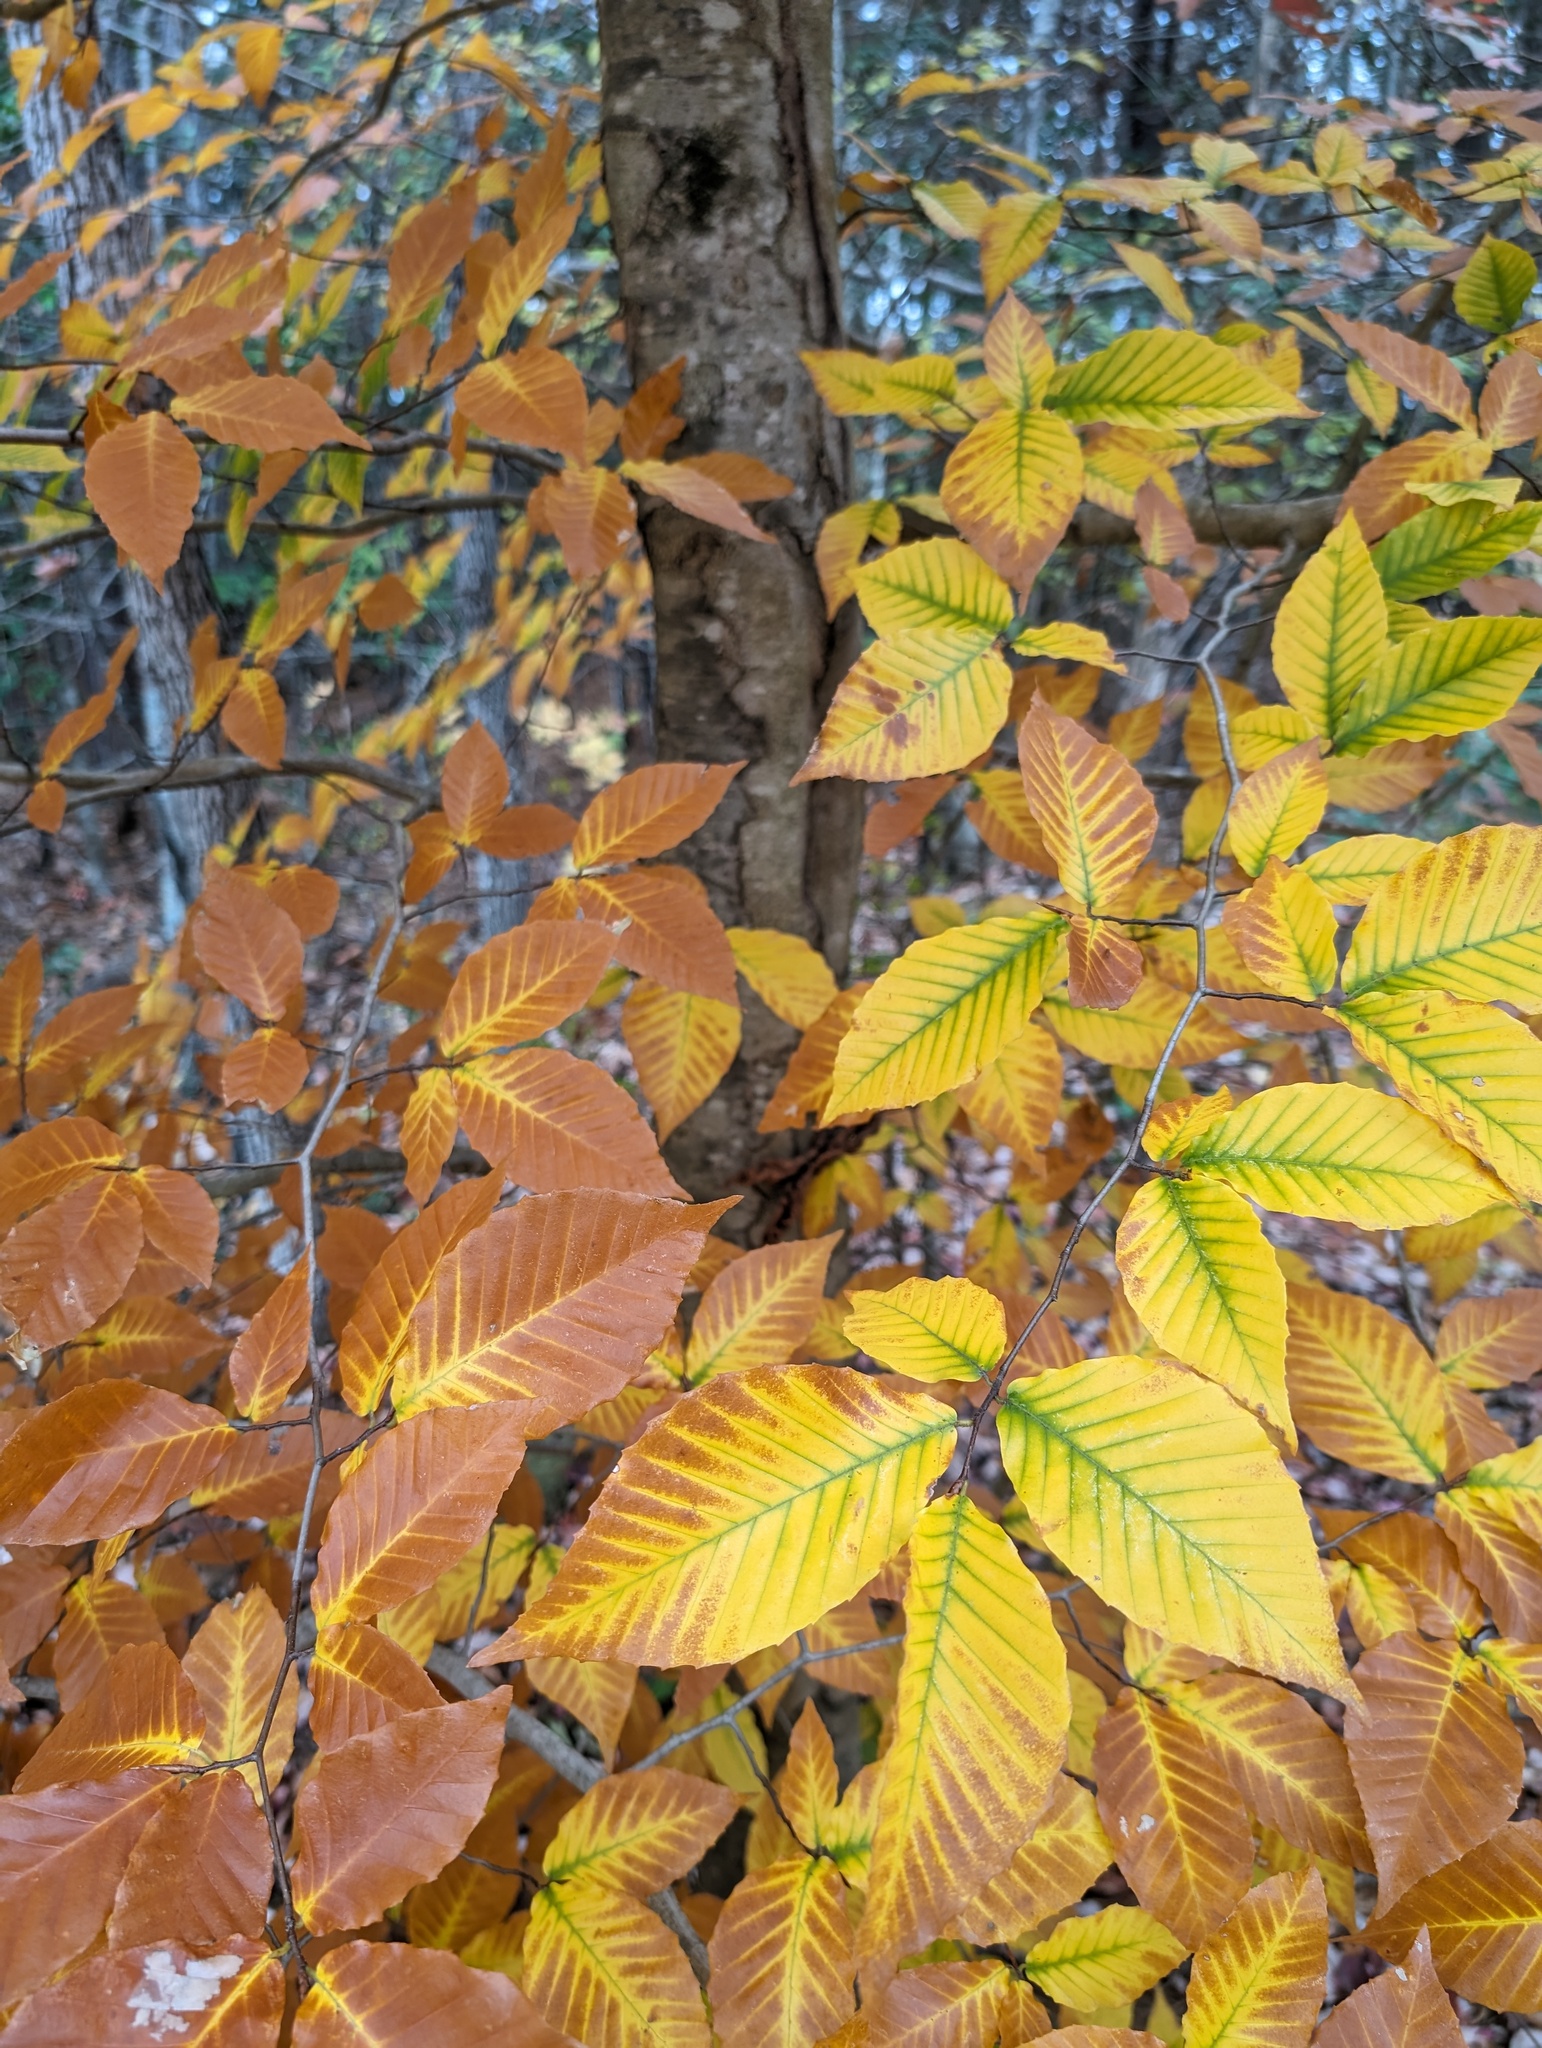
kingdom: Plantae
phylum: Tracheophyta
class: Magnoliopsida
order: Fagales
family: Fagaceae
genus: Fagus
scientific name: Fagus grandifolia
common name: American beech
